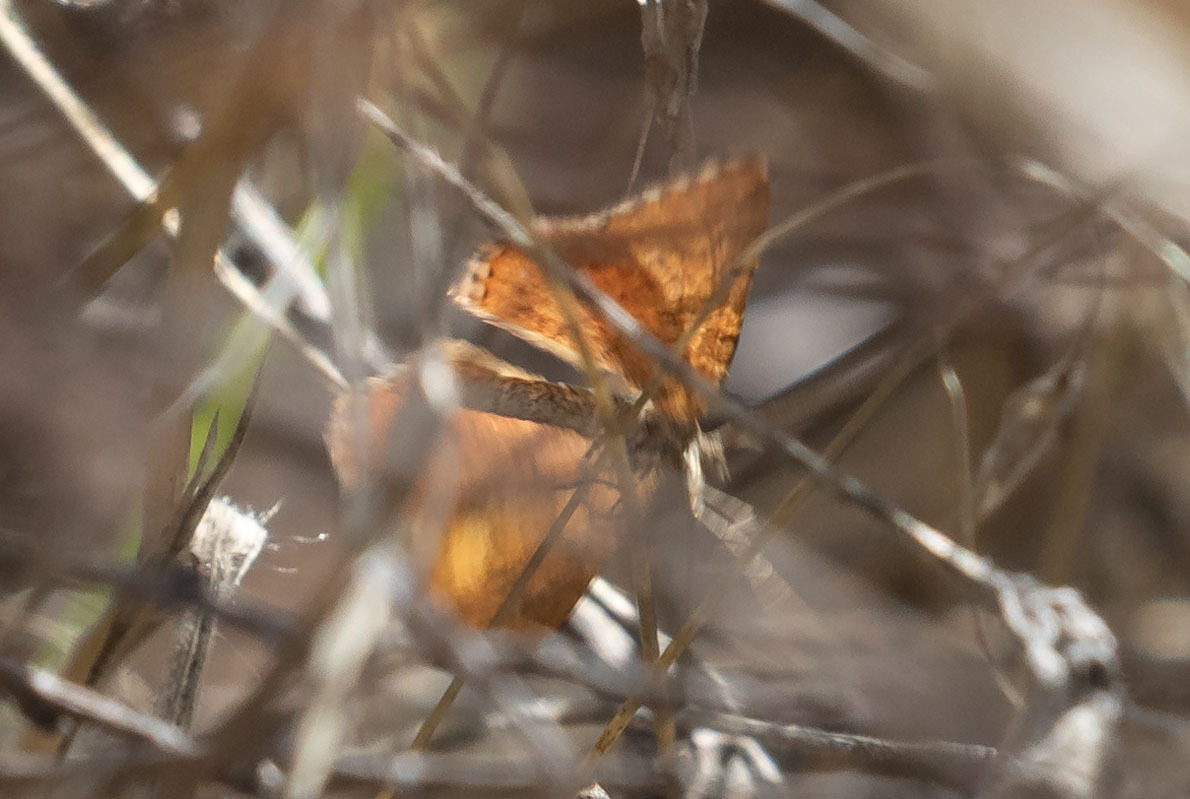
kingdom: Animalia
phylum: Arthropoda
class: Insecta
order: Lepidoptera
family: Geometridae
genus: Epirrhoe
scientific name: Epirrhoe plebeculata
